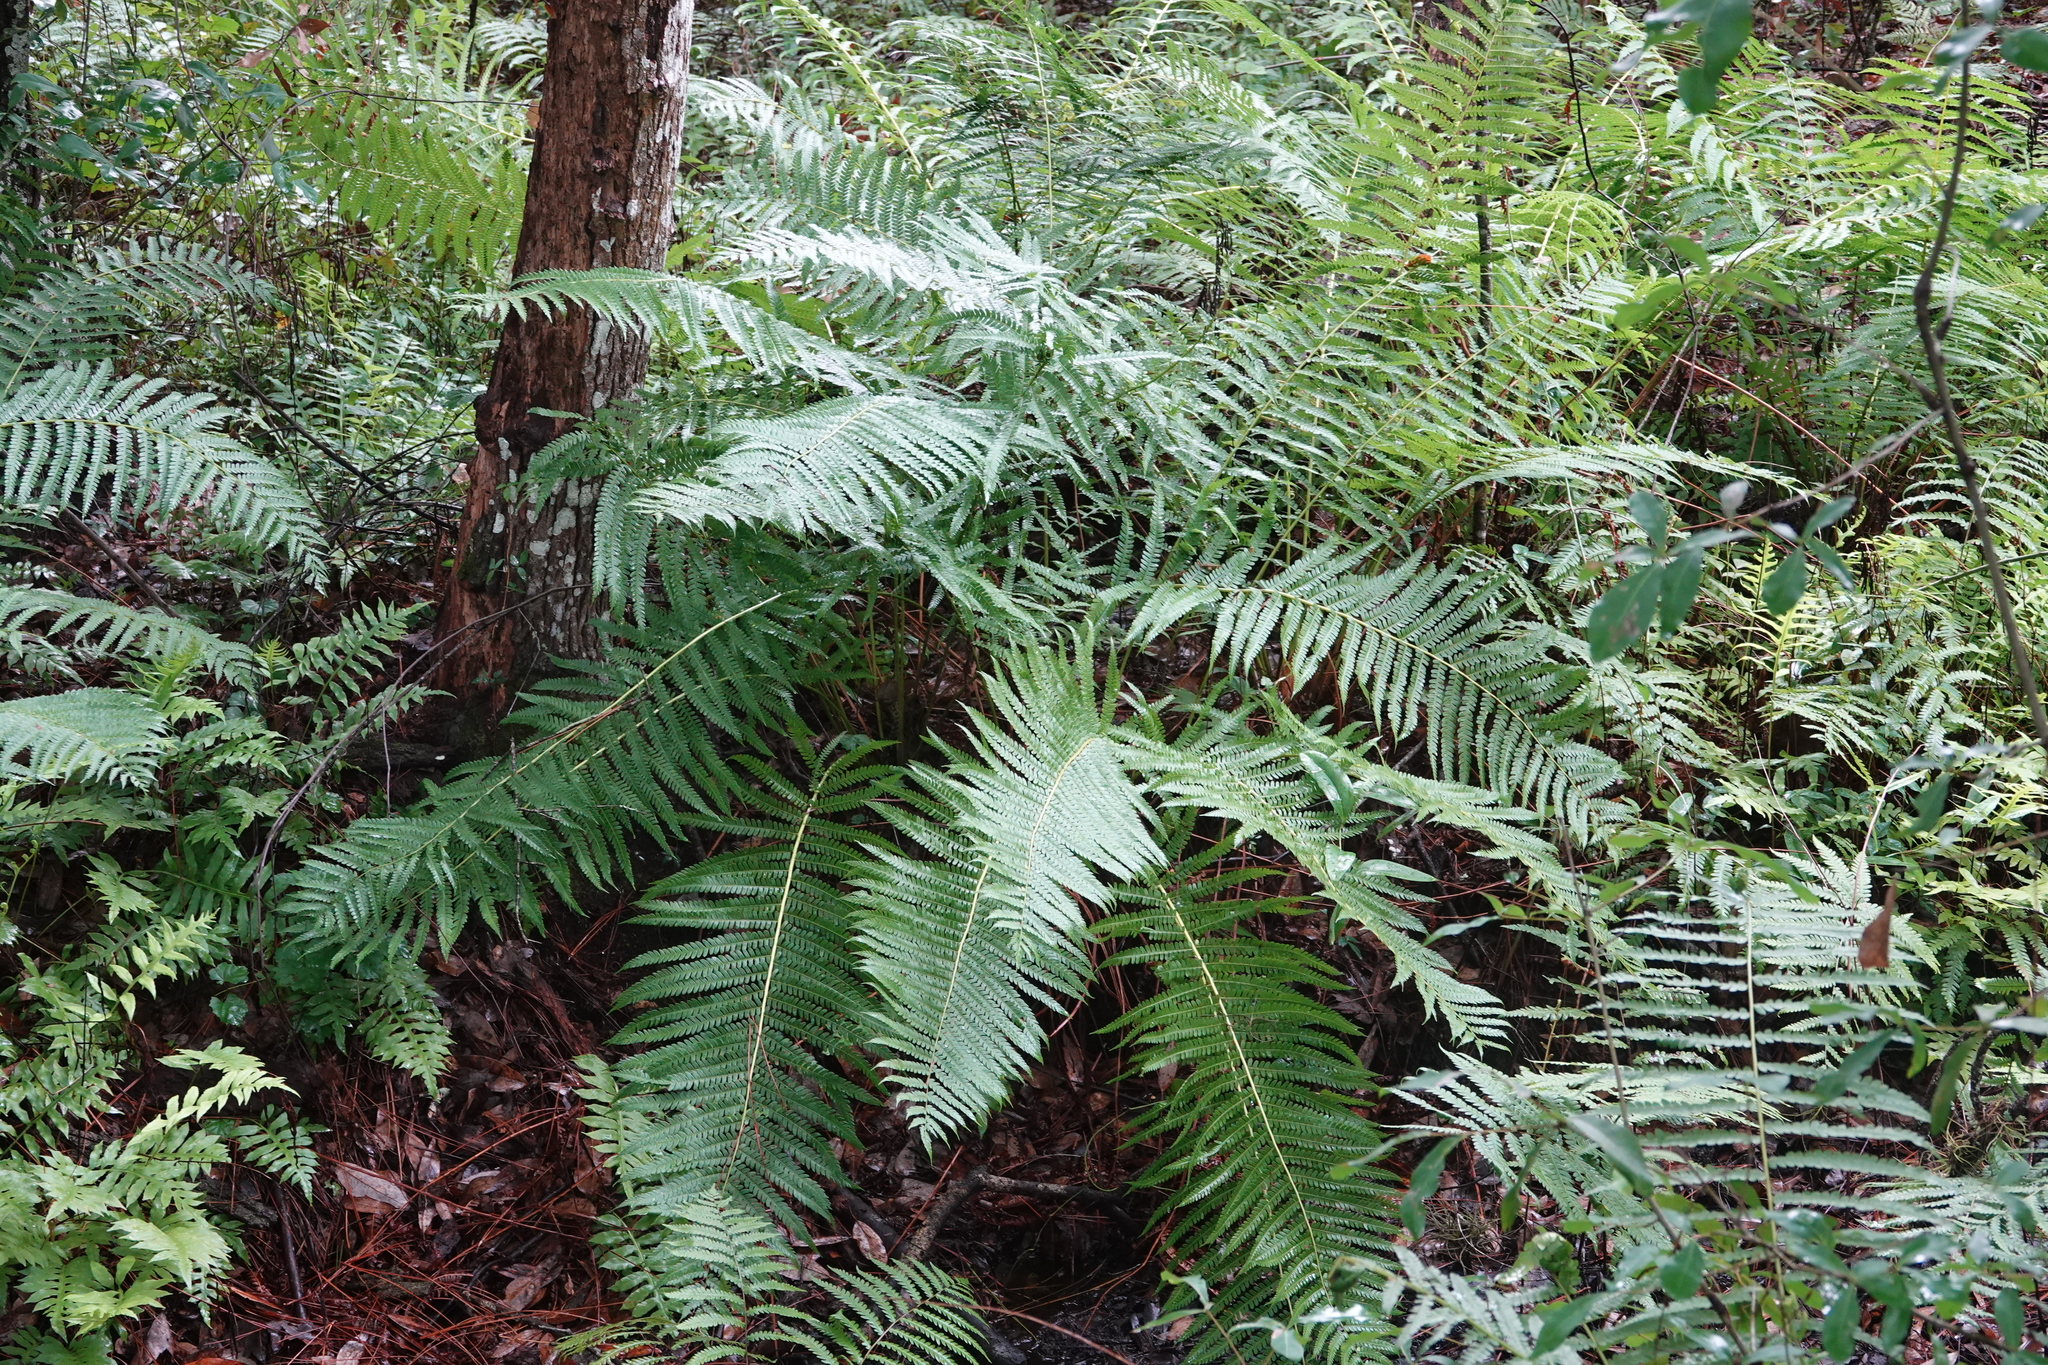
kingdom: Plantae
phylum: Tracheophyta
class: Polypodiopsida
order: Osmundales
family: Osmundaceae
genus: Osmundastrum
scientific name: Osmundastrum cinnamomeum
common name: Cinnamon fern
